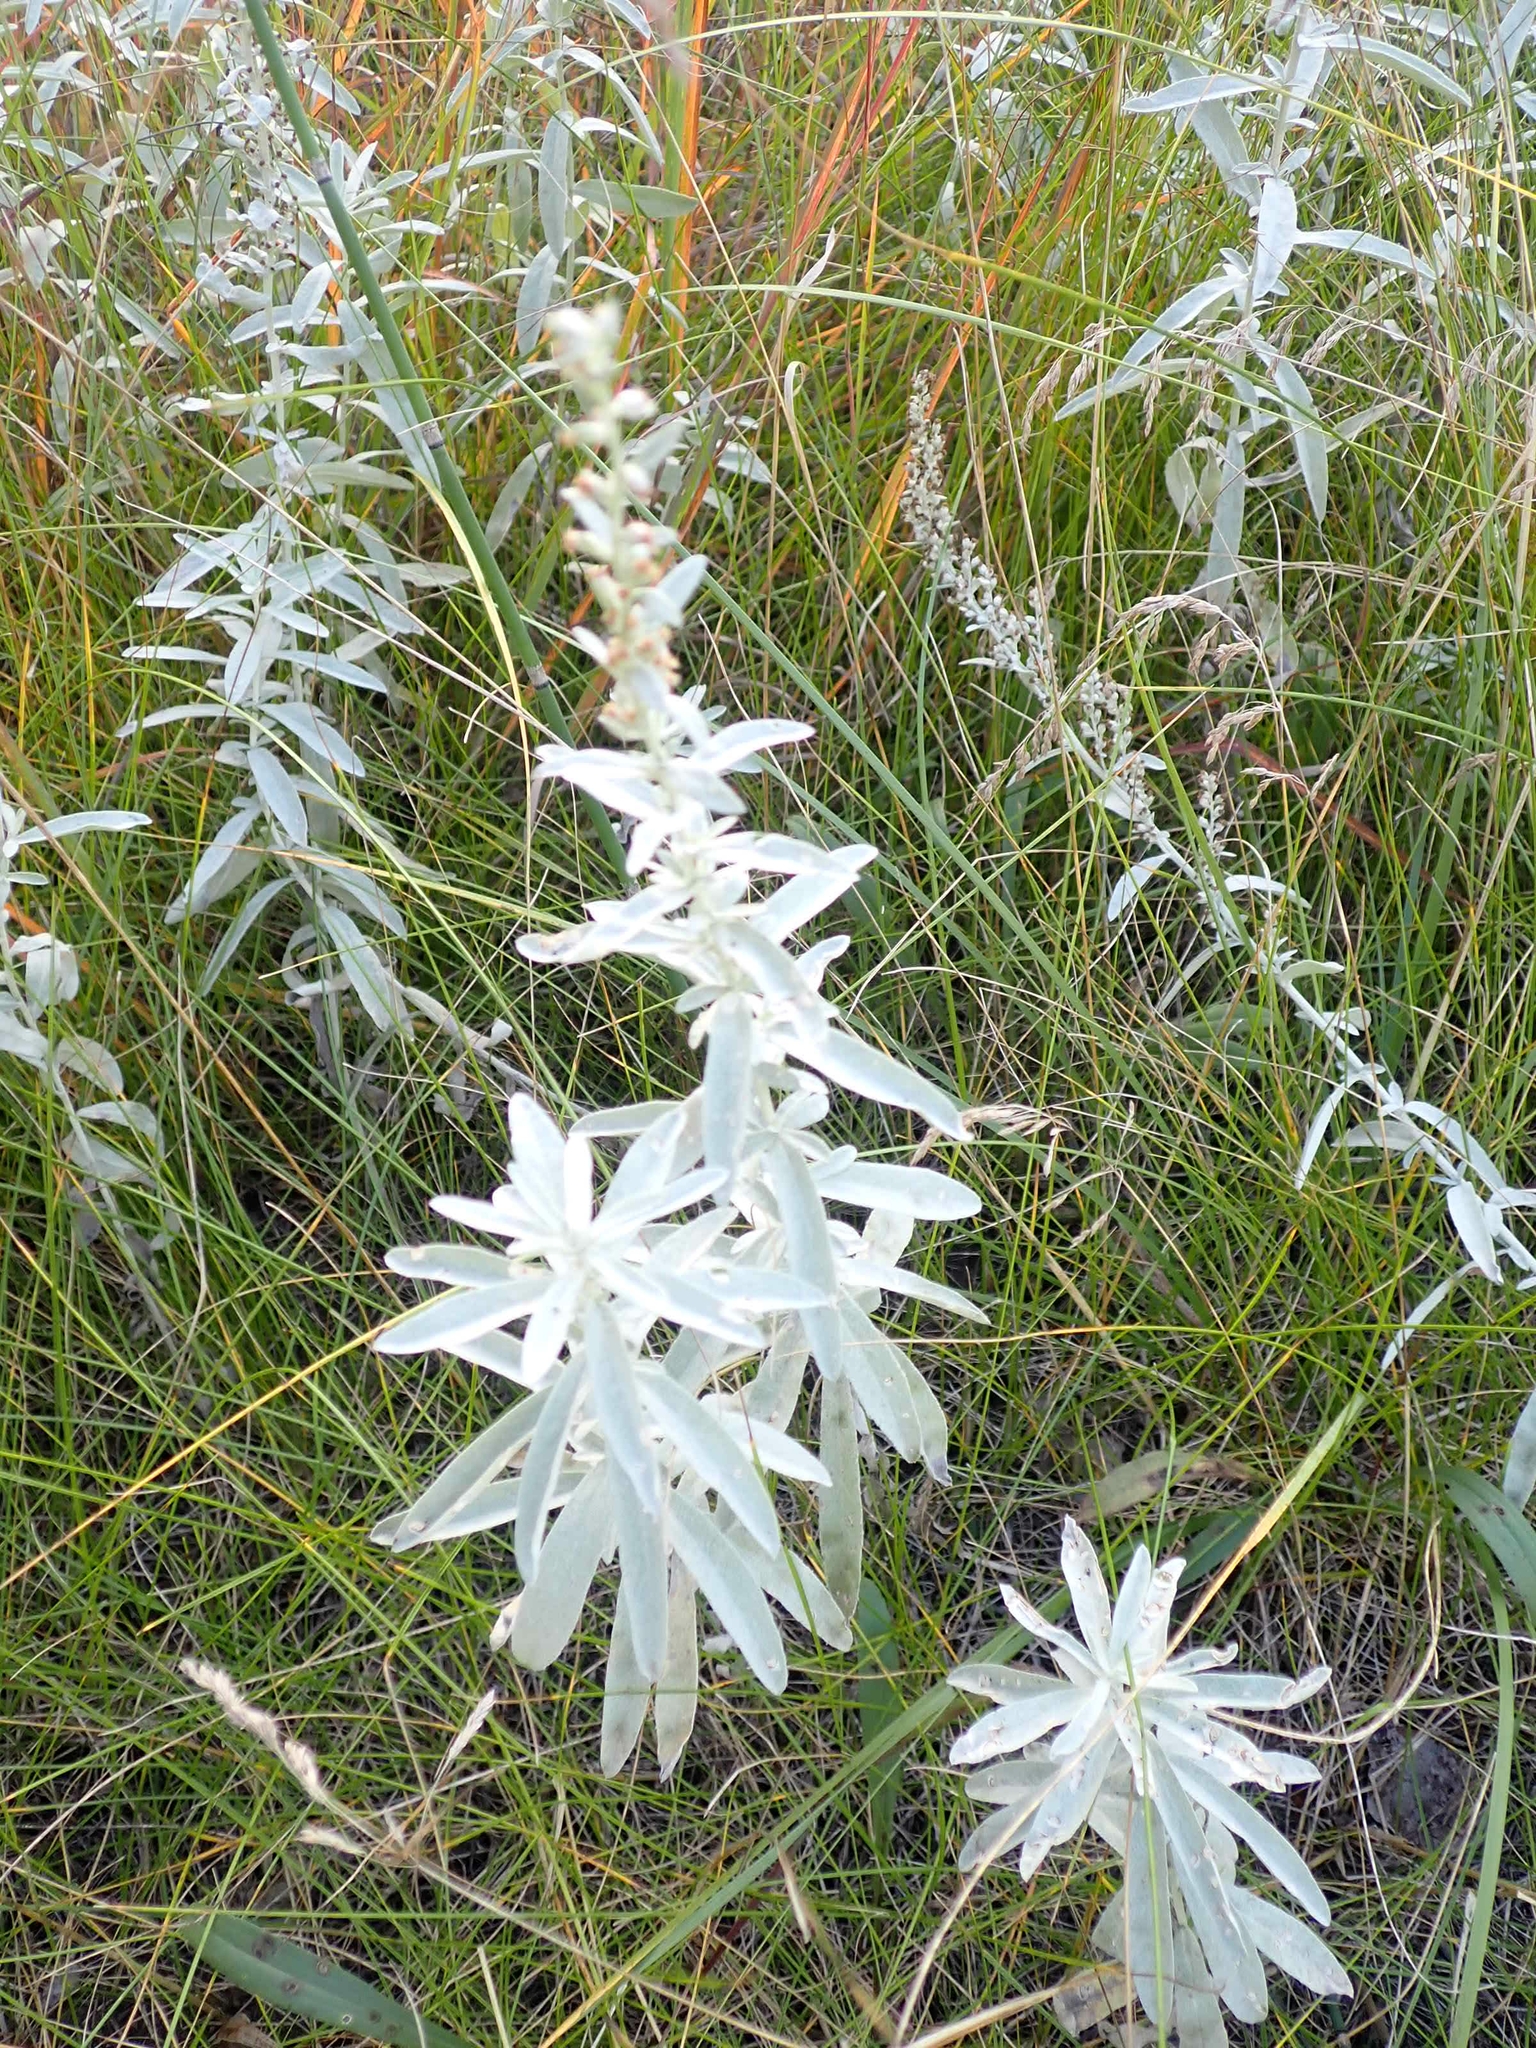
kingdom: Plantae
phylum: Tracheophyta
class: Magnoliopsida
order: Asterales
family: Asteraceae
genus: Artemisia
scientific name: Artemisia ludoviciana
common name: Western mugwort
